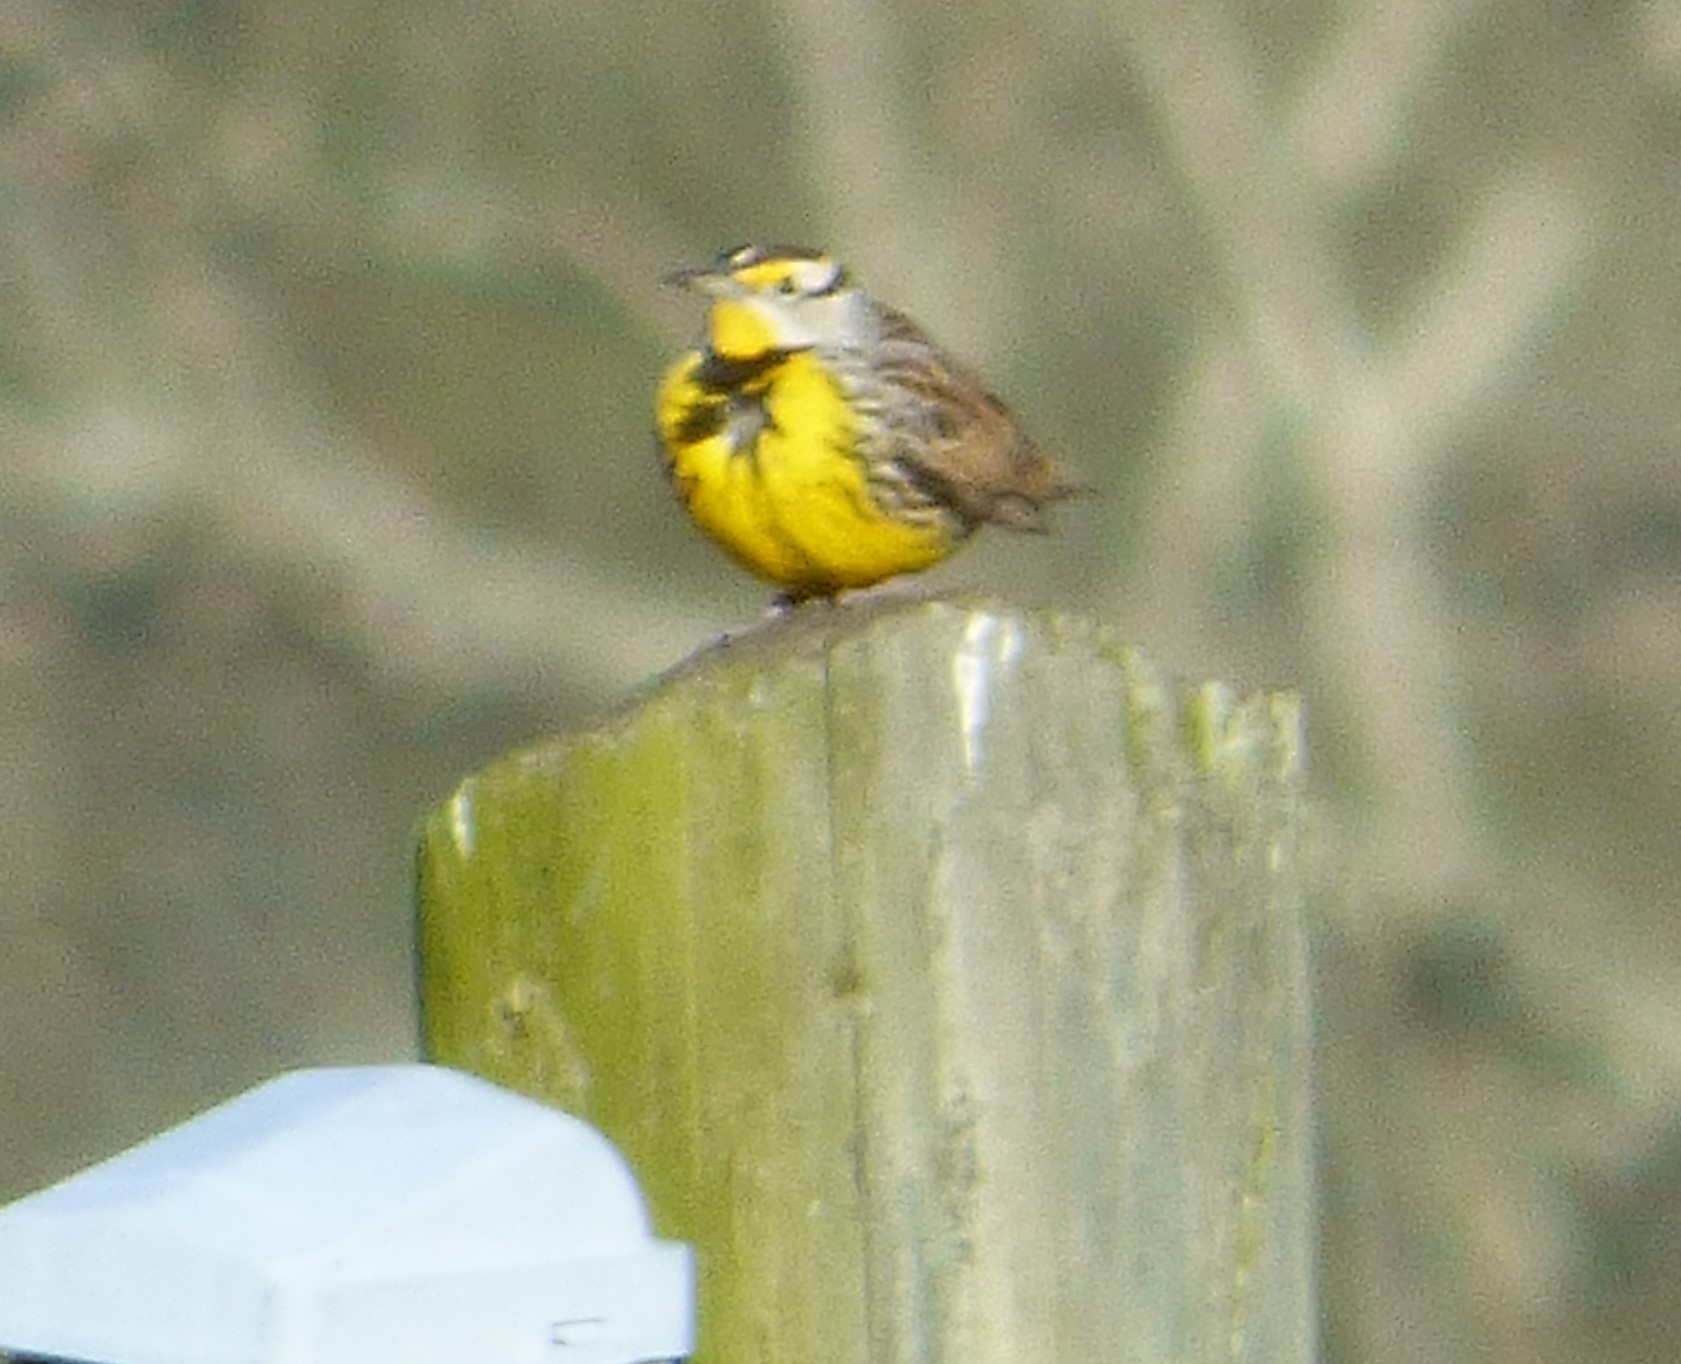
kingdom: Animalia
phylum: Chordata
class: Aves
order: Passeriformes
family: Icteridae
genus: Sturnella
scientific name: Sturnella magna
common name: Eastern meadowlark
